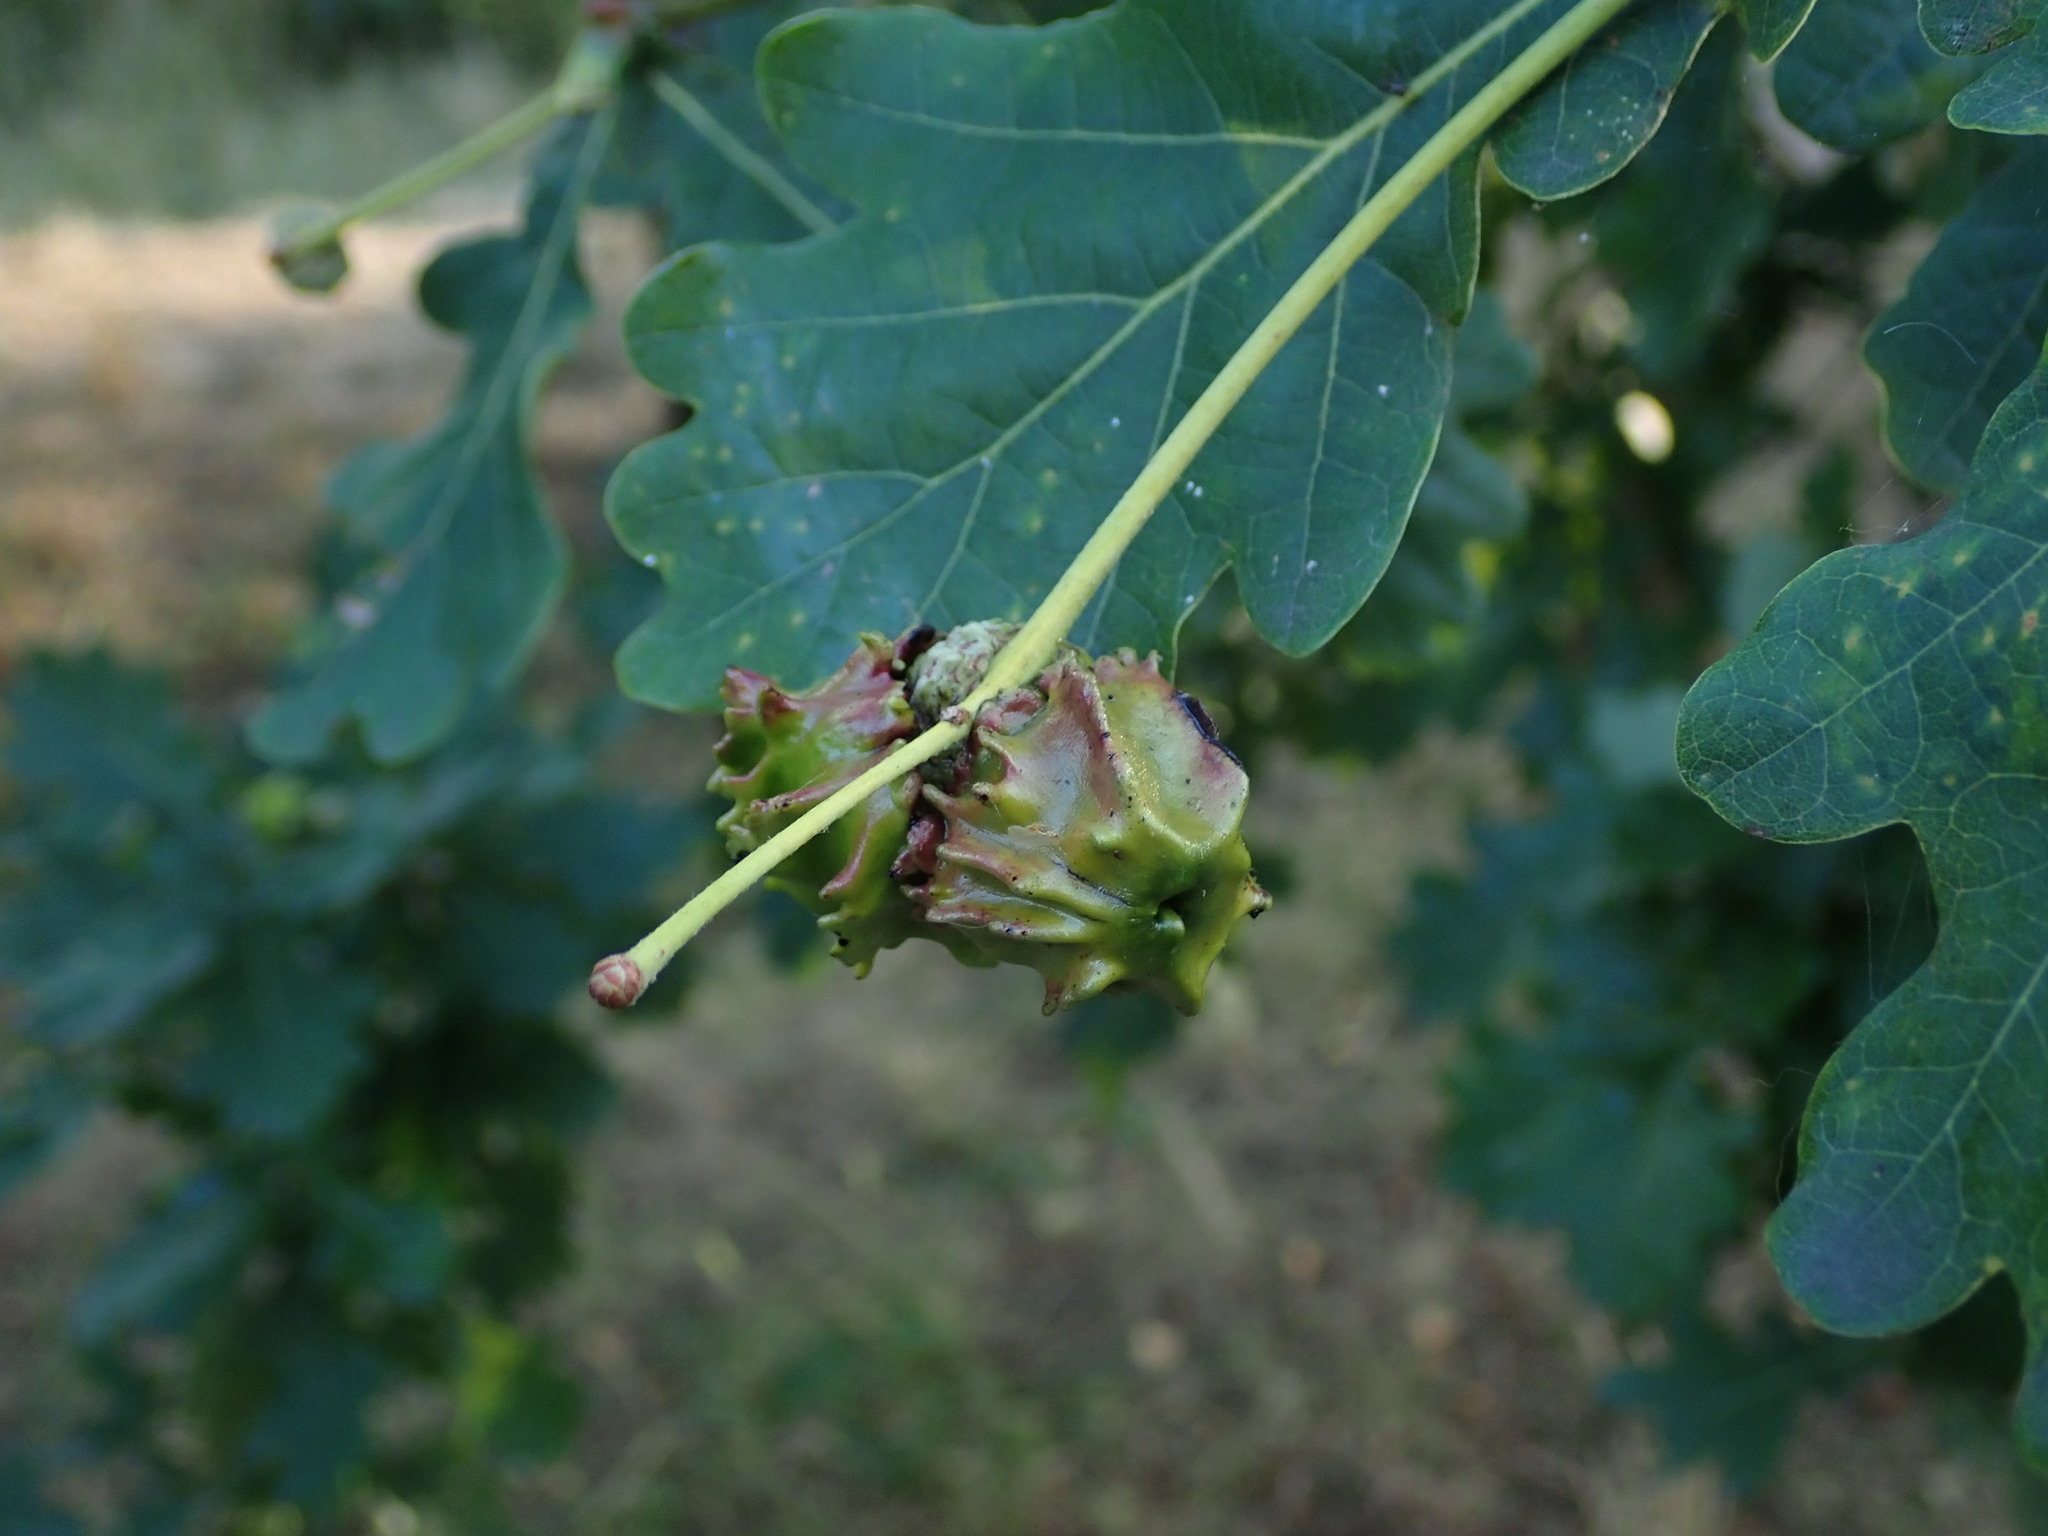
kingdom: Animalia
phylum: Arthropoda
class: Insecta
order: Hymenoptera
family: Cynipidae
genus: Andricus
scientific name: Andricus quercuscalicis
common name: Knopper gall
